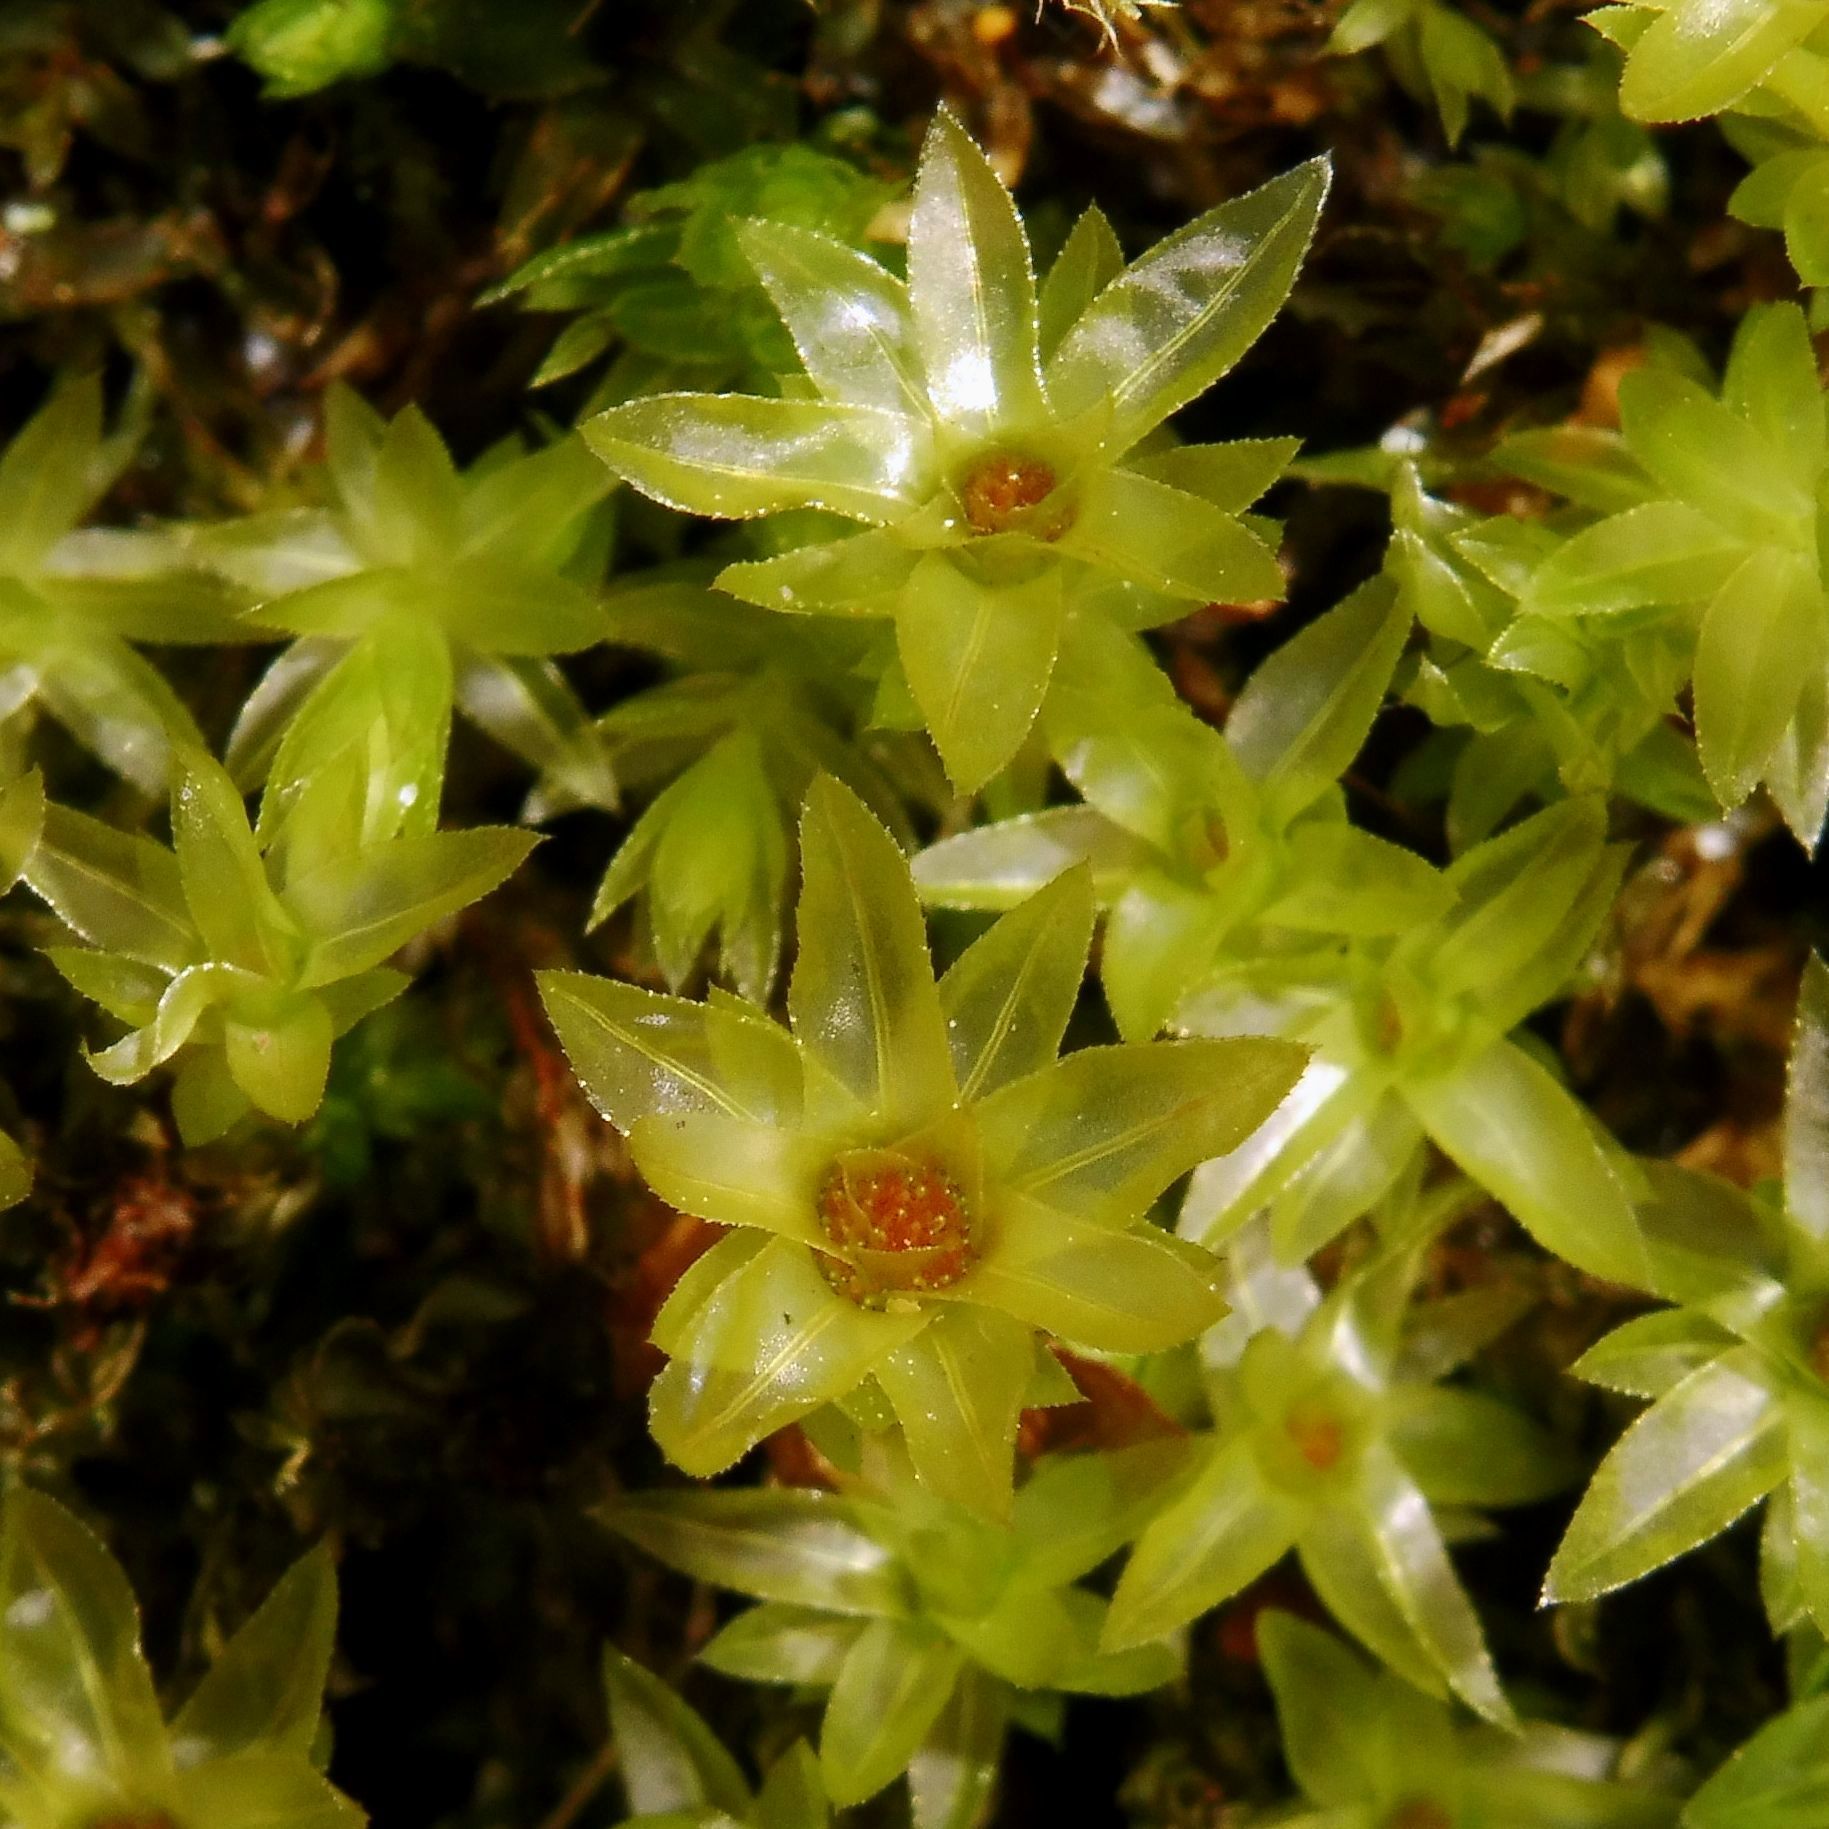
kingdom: Plantae
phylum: Bryophyta
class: Bryopsida
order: Bryales
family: Mniaceae
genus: Mnium
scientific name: Mnium hornum
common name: Swan's-neck leafy moss
